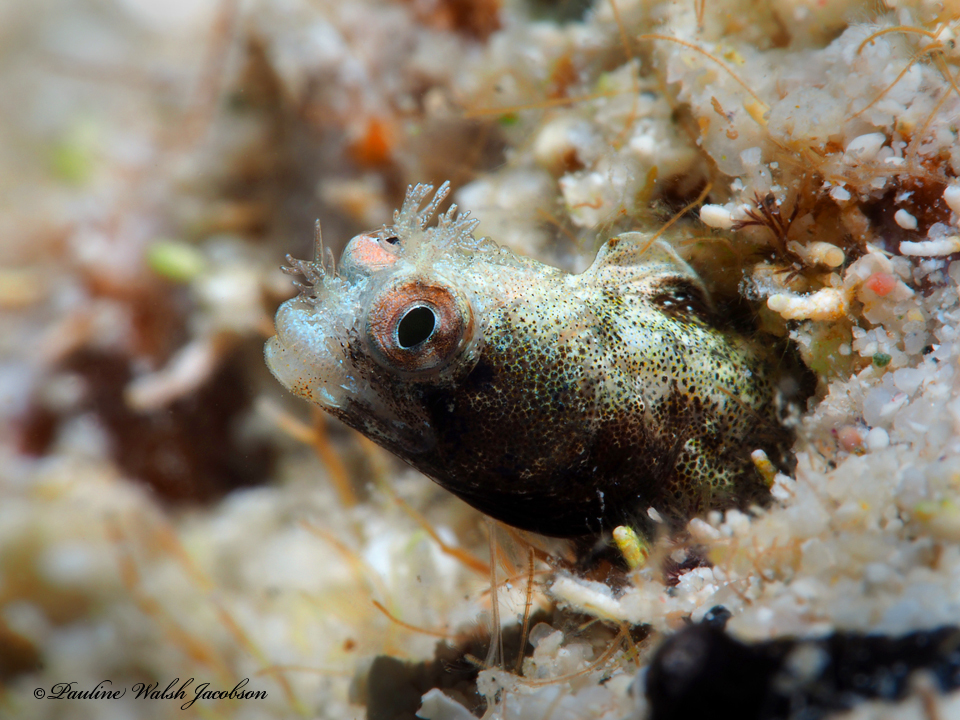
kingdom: Animalia
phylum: Chordata
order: Perciformes
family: Chaenopsidae
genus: Acanthemblemaria
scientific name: Acanthemblemaria aspera
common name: Roughhead blenny
